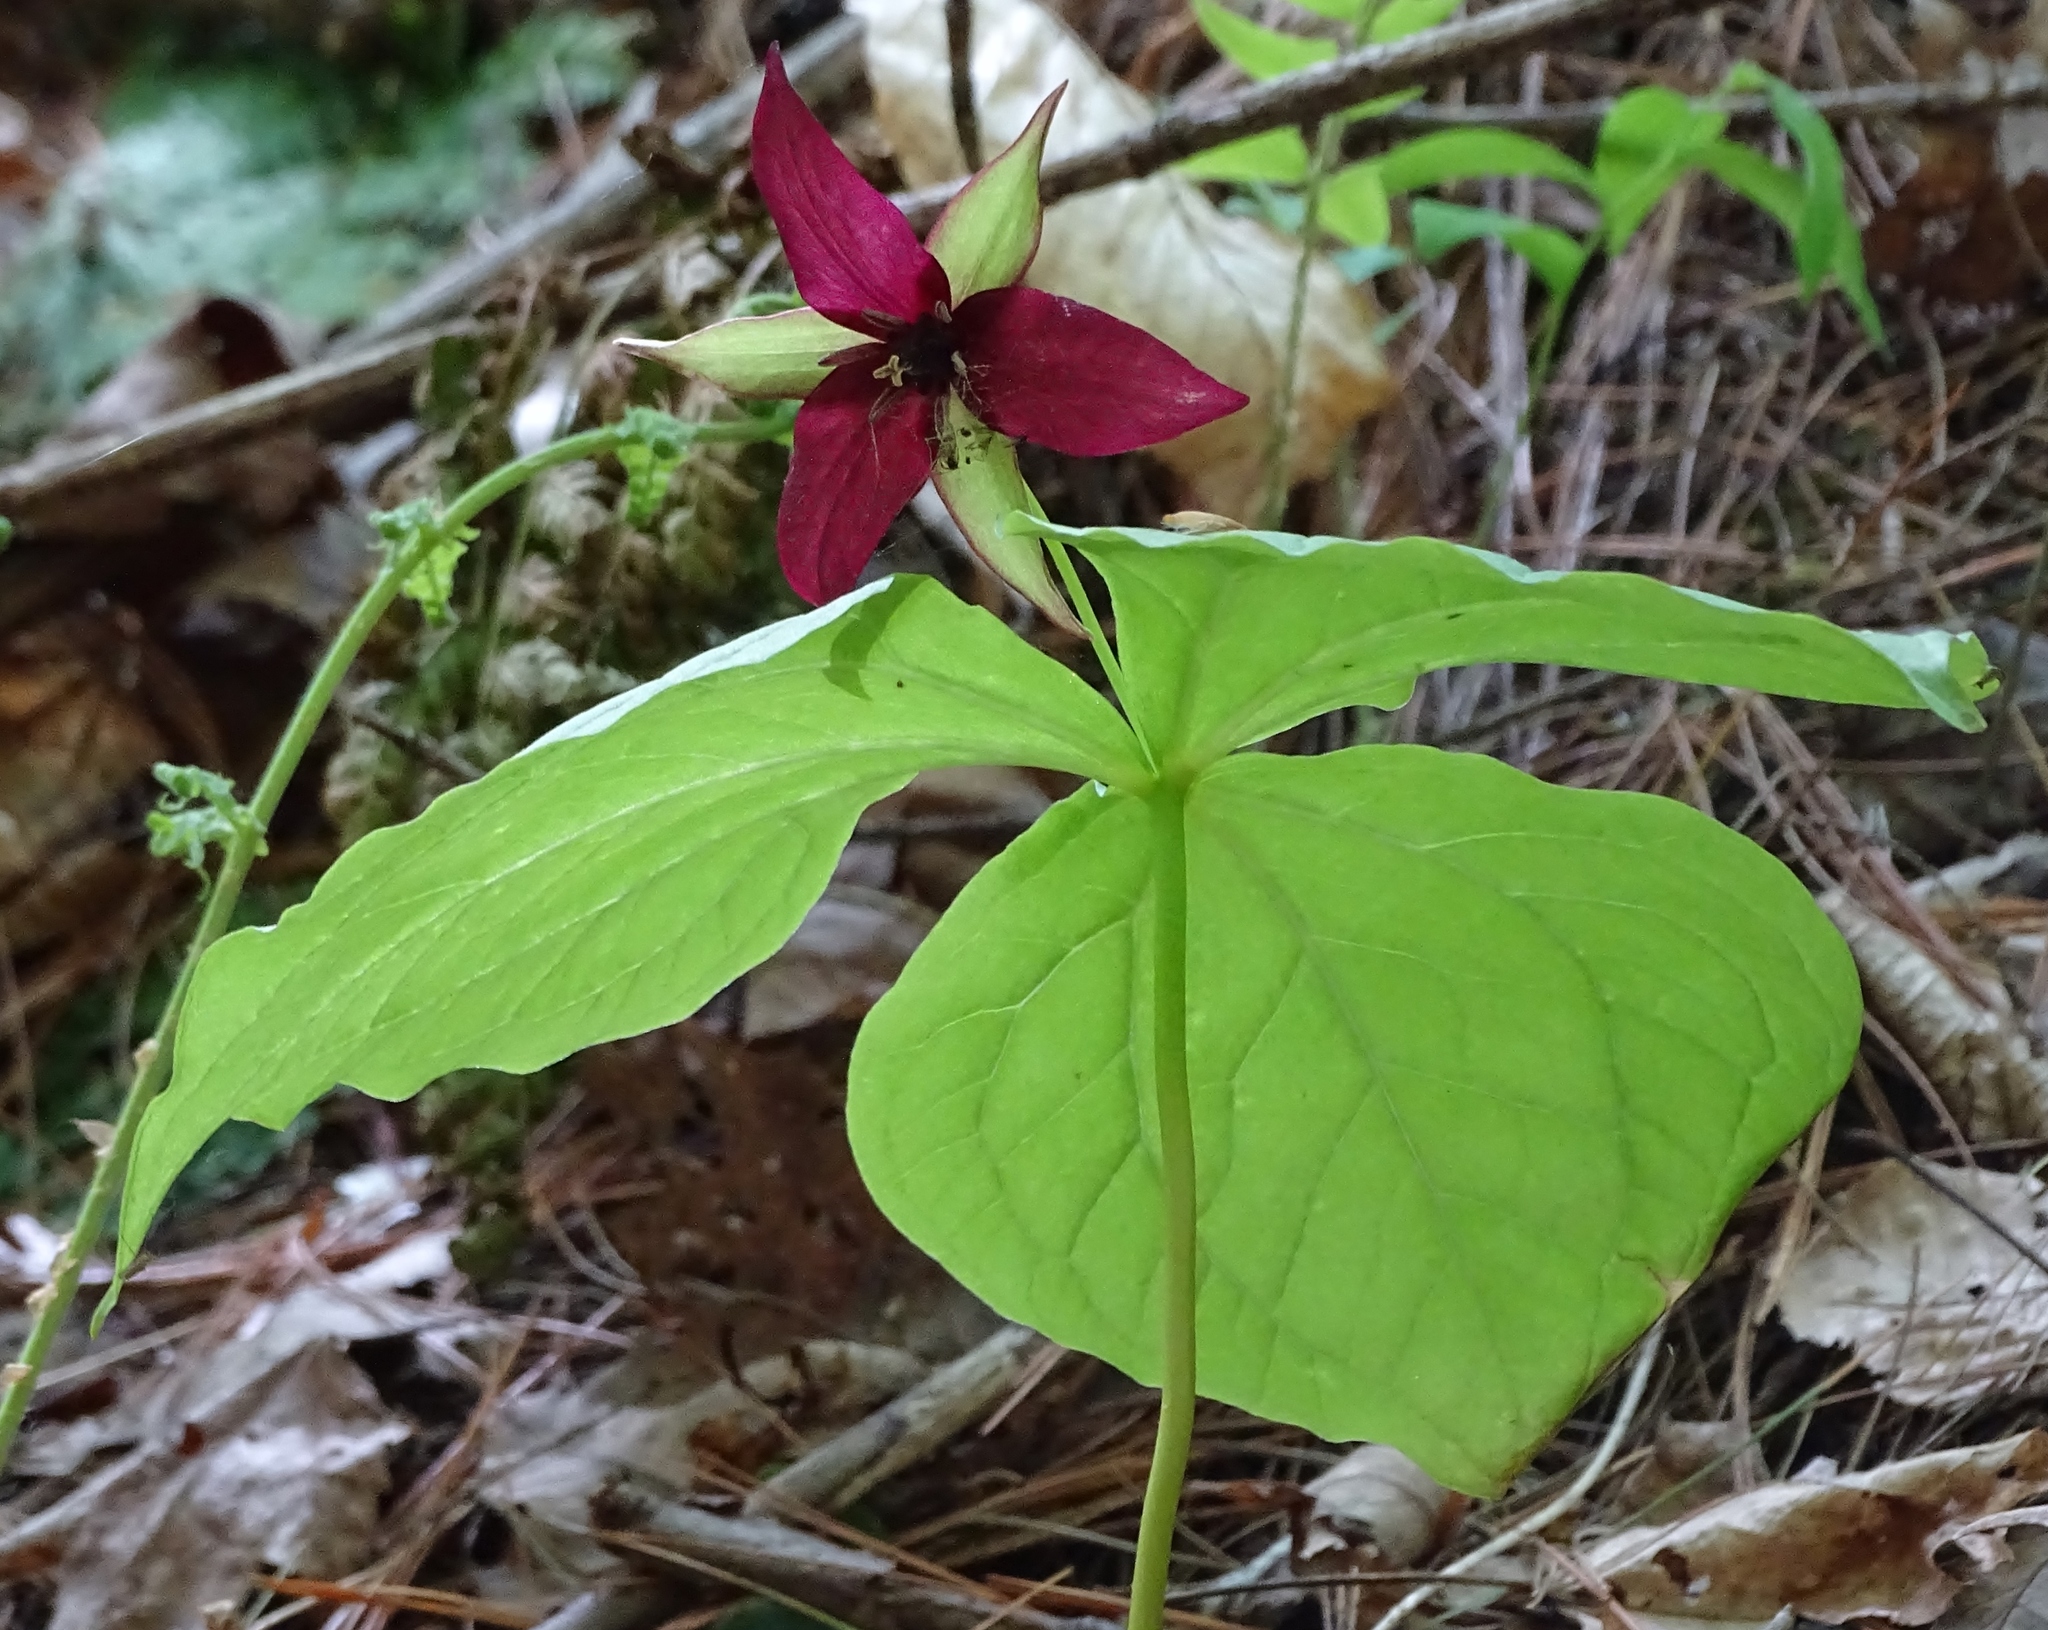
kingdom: Plantae
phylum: Tracheophyta
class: Liliopsida
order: Liliales
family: Melanthiaceae
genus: Trillium
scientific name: Trillium erectum
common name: Purple trillium
